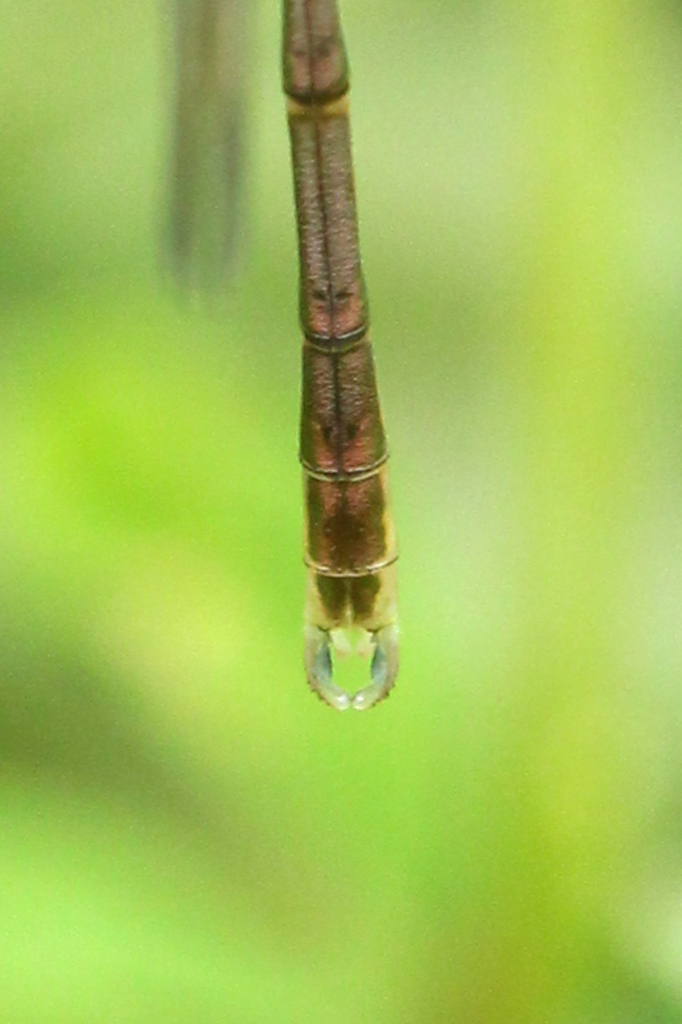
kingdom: Animalia
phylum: Arthropoda
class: Insecta
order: Odonata
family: Lestidae
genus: Lestes
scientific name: Lestes congener
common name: Spotted spreadwing
